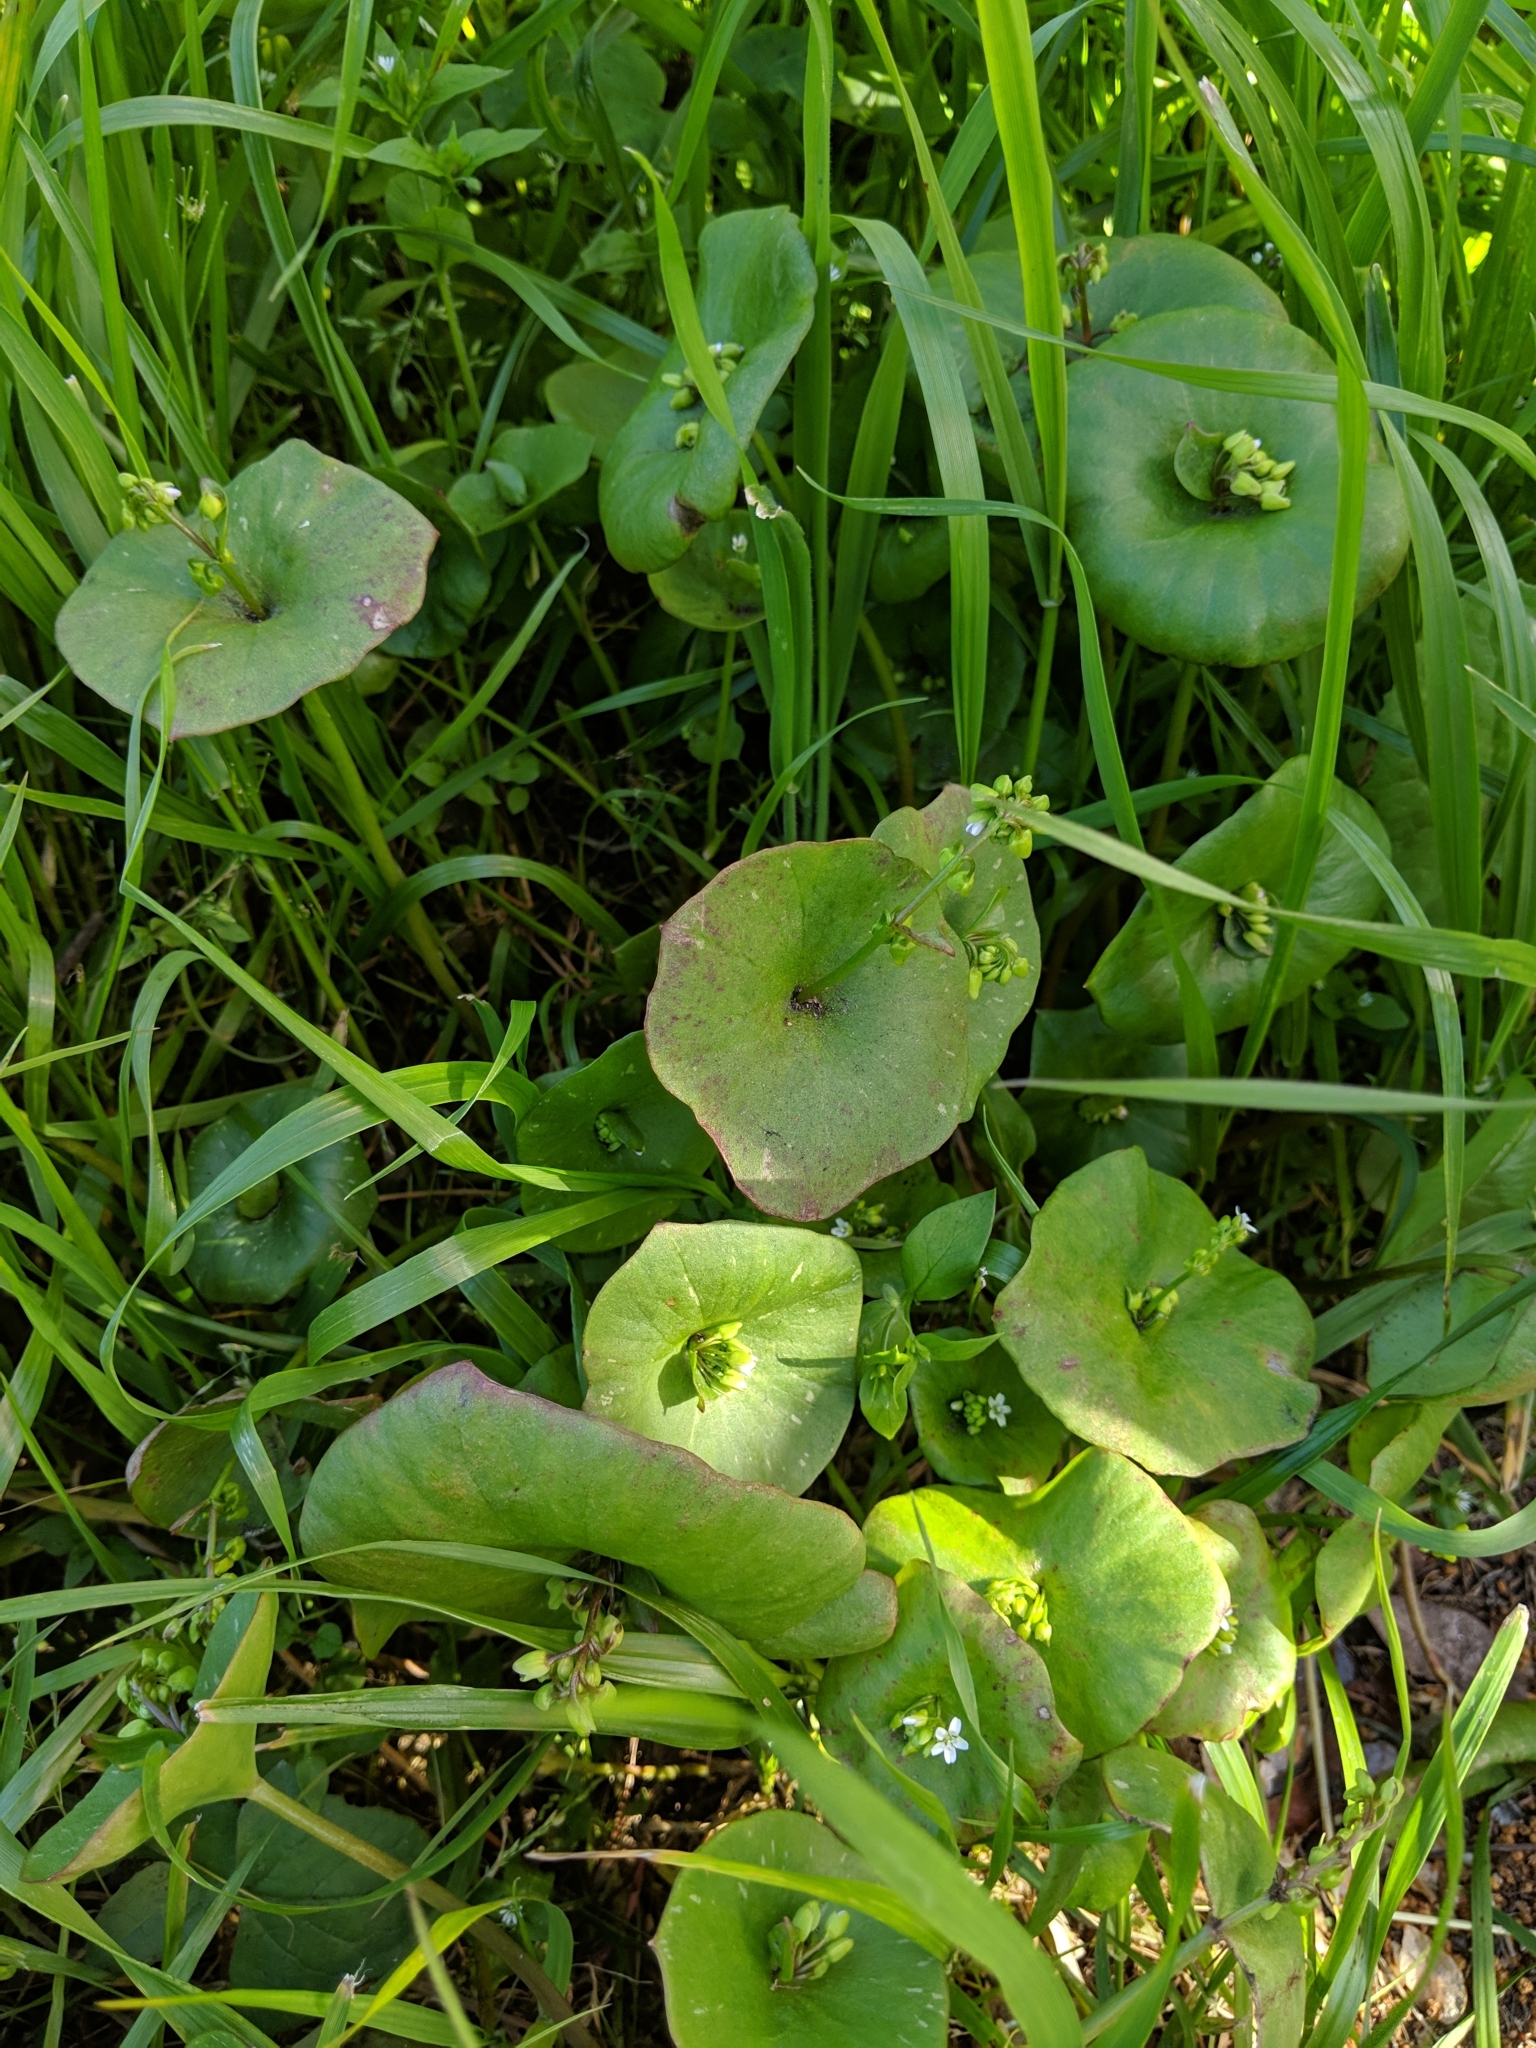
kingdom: Plantae
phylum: Tracheophyta
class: Magnoliopsida
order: Caryophyllales
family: Montiaceae
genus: Claytonia
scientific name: Claytonia perfoliata
